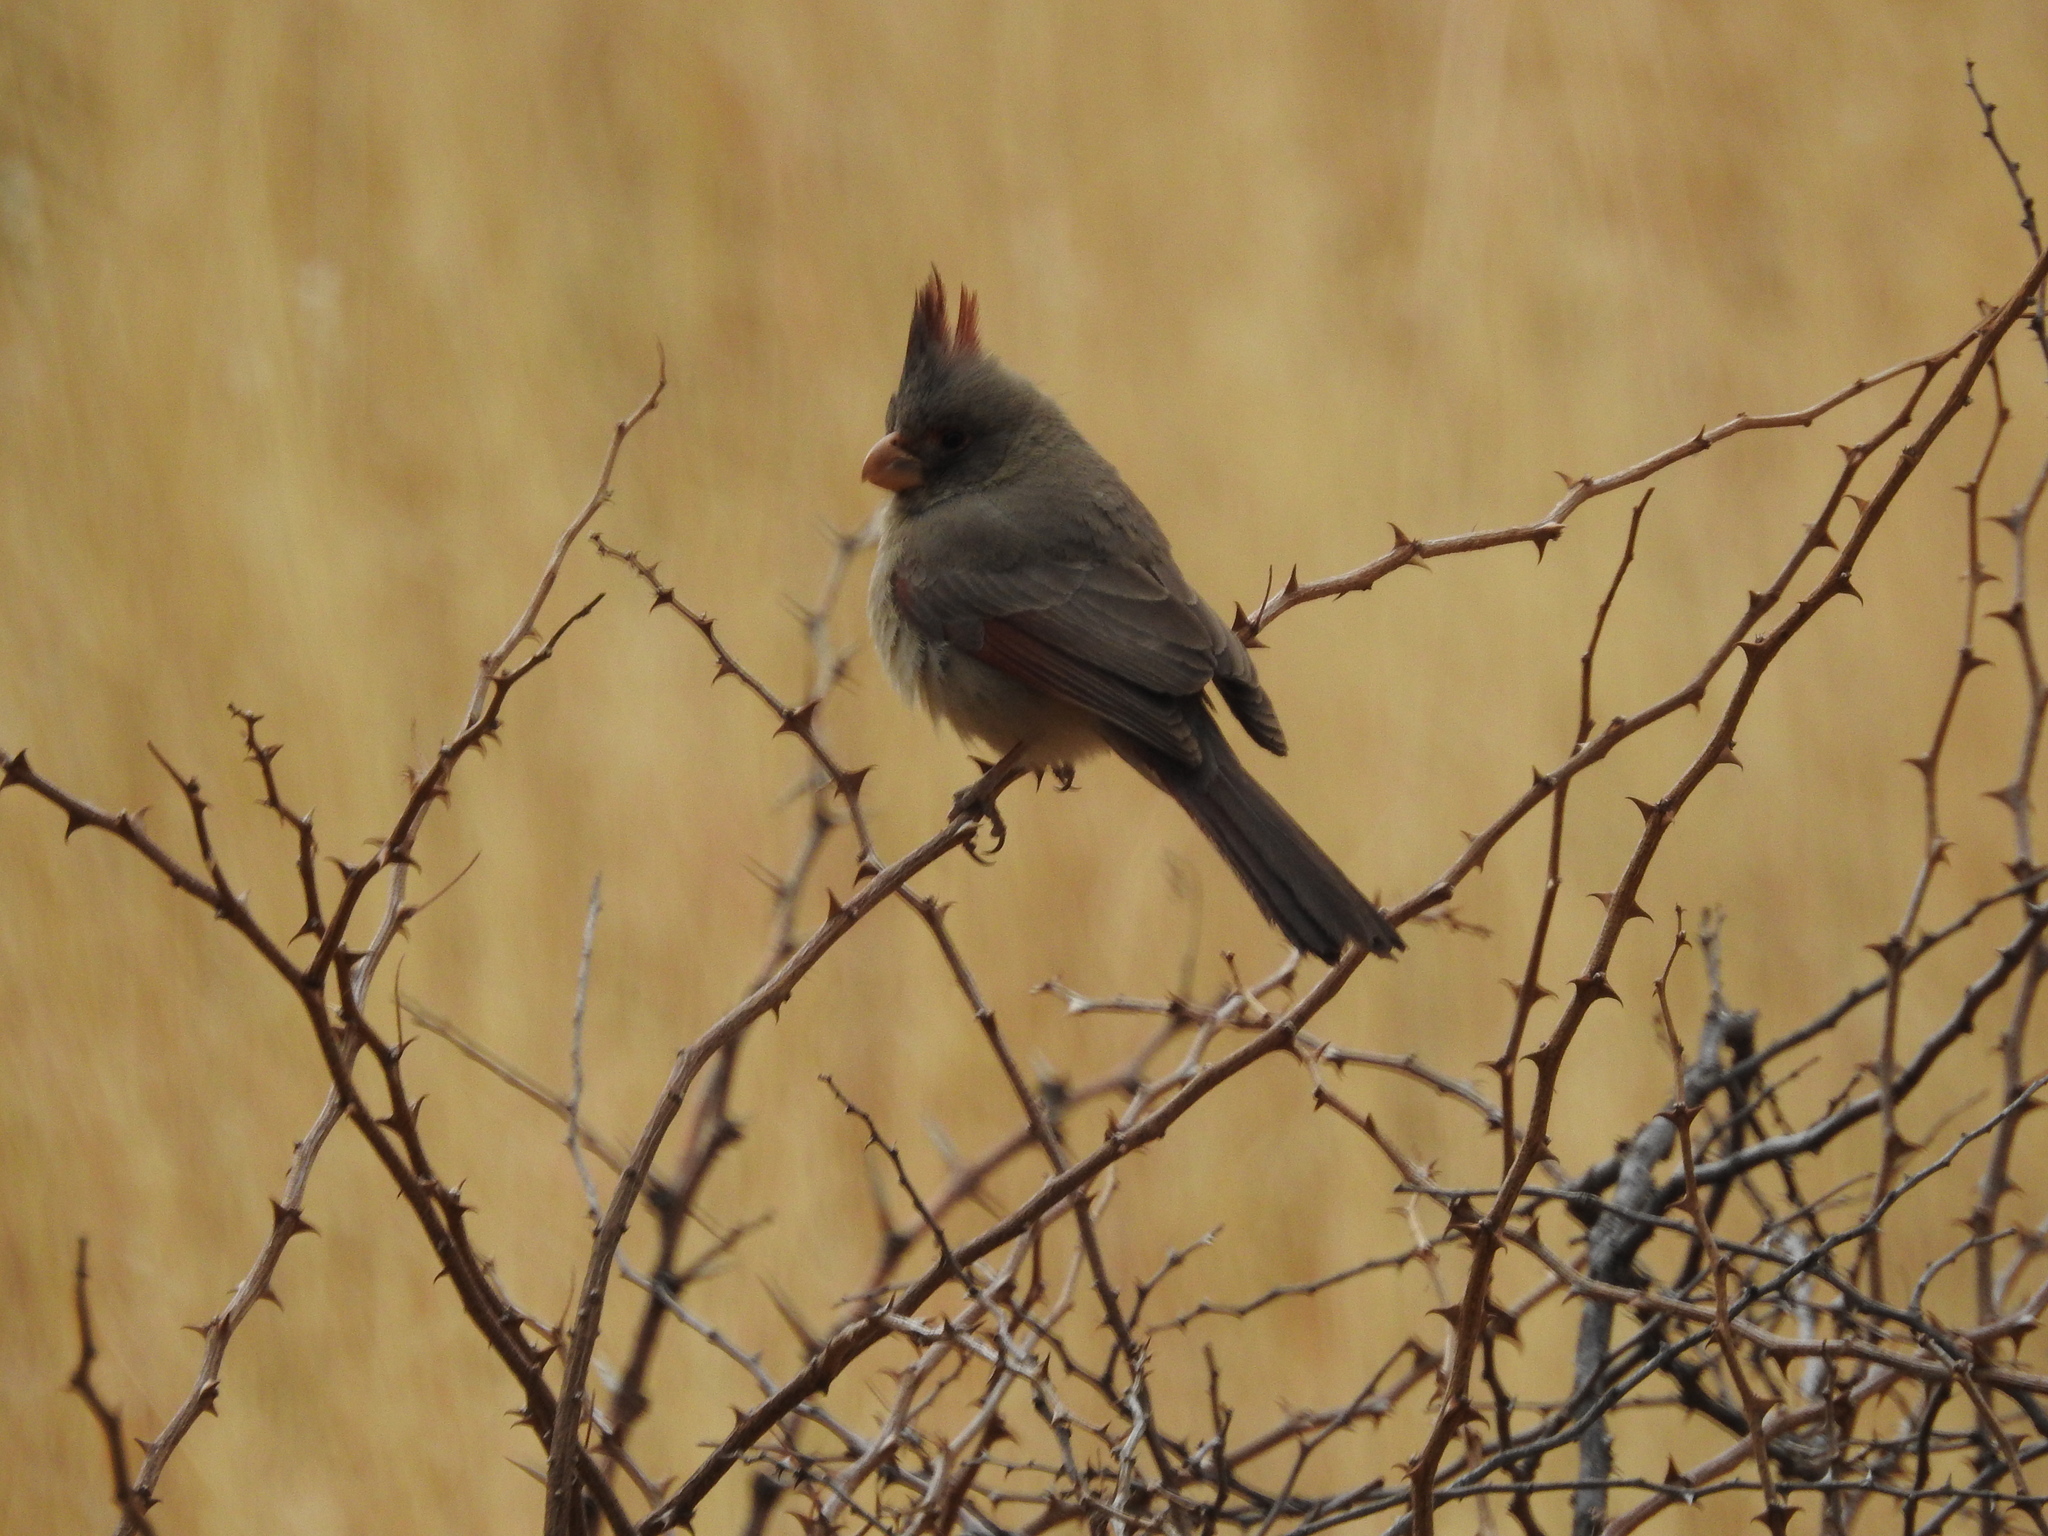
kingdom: Animalia
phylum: Chordata
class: Aves
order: Passeriformes
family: Cardinalidae
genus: Cardinalis
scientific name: Cardinalis sinuatus
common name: Pyrrhuloxia
